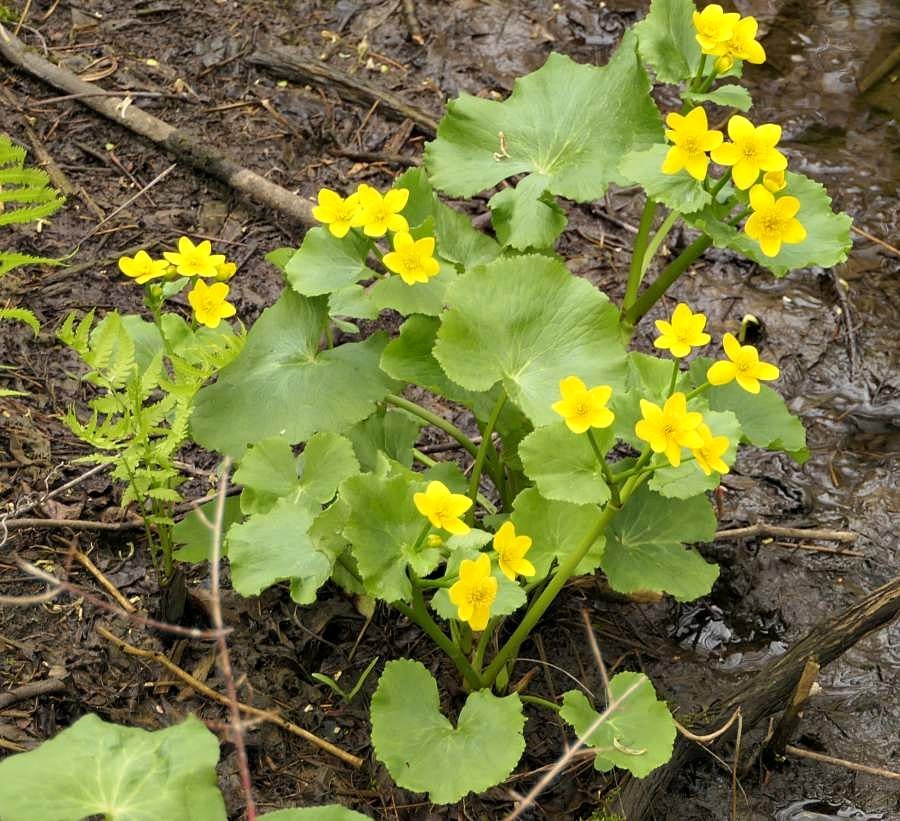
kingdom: Plantae
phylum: Tracheophyta
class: Magnoliopsida
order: Ranunculales
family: Ranunculaceae
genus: Caltha
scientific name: Caltha palustris
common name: Marsh marigold
